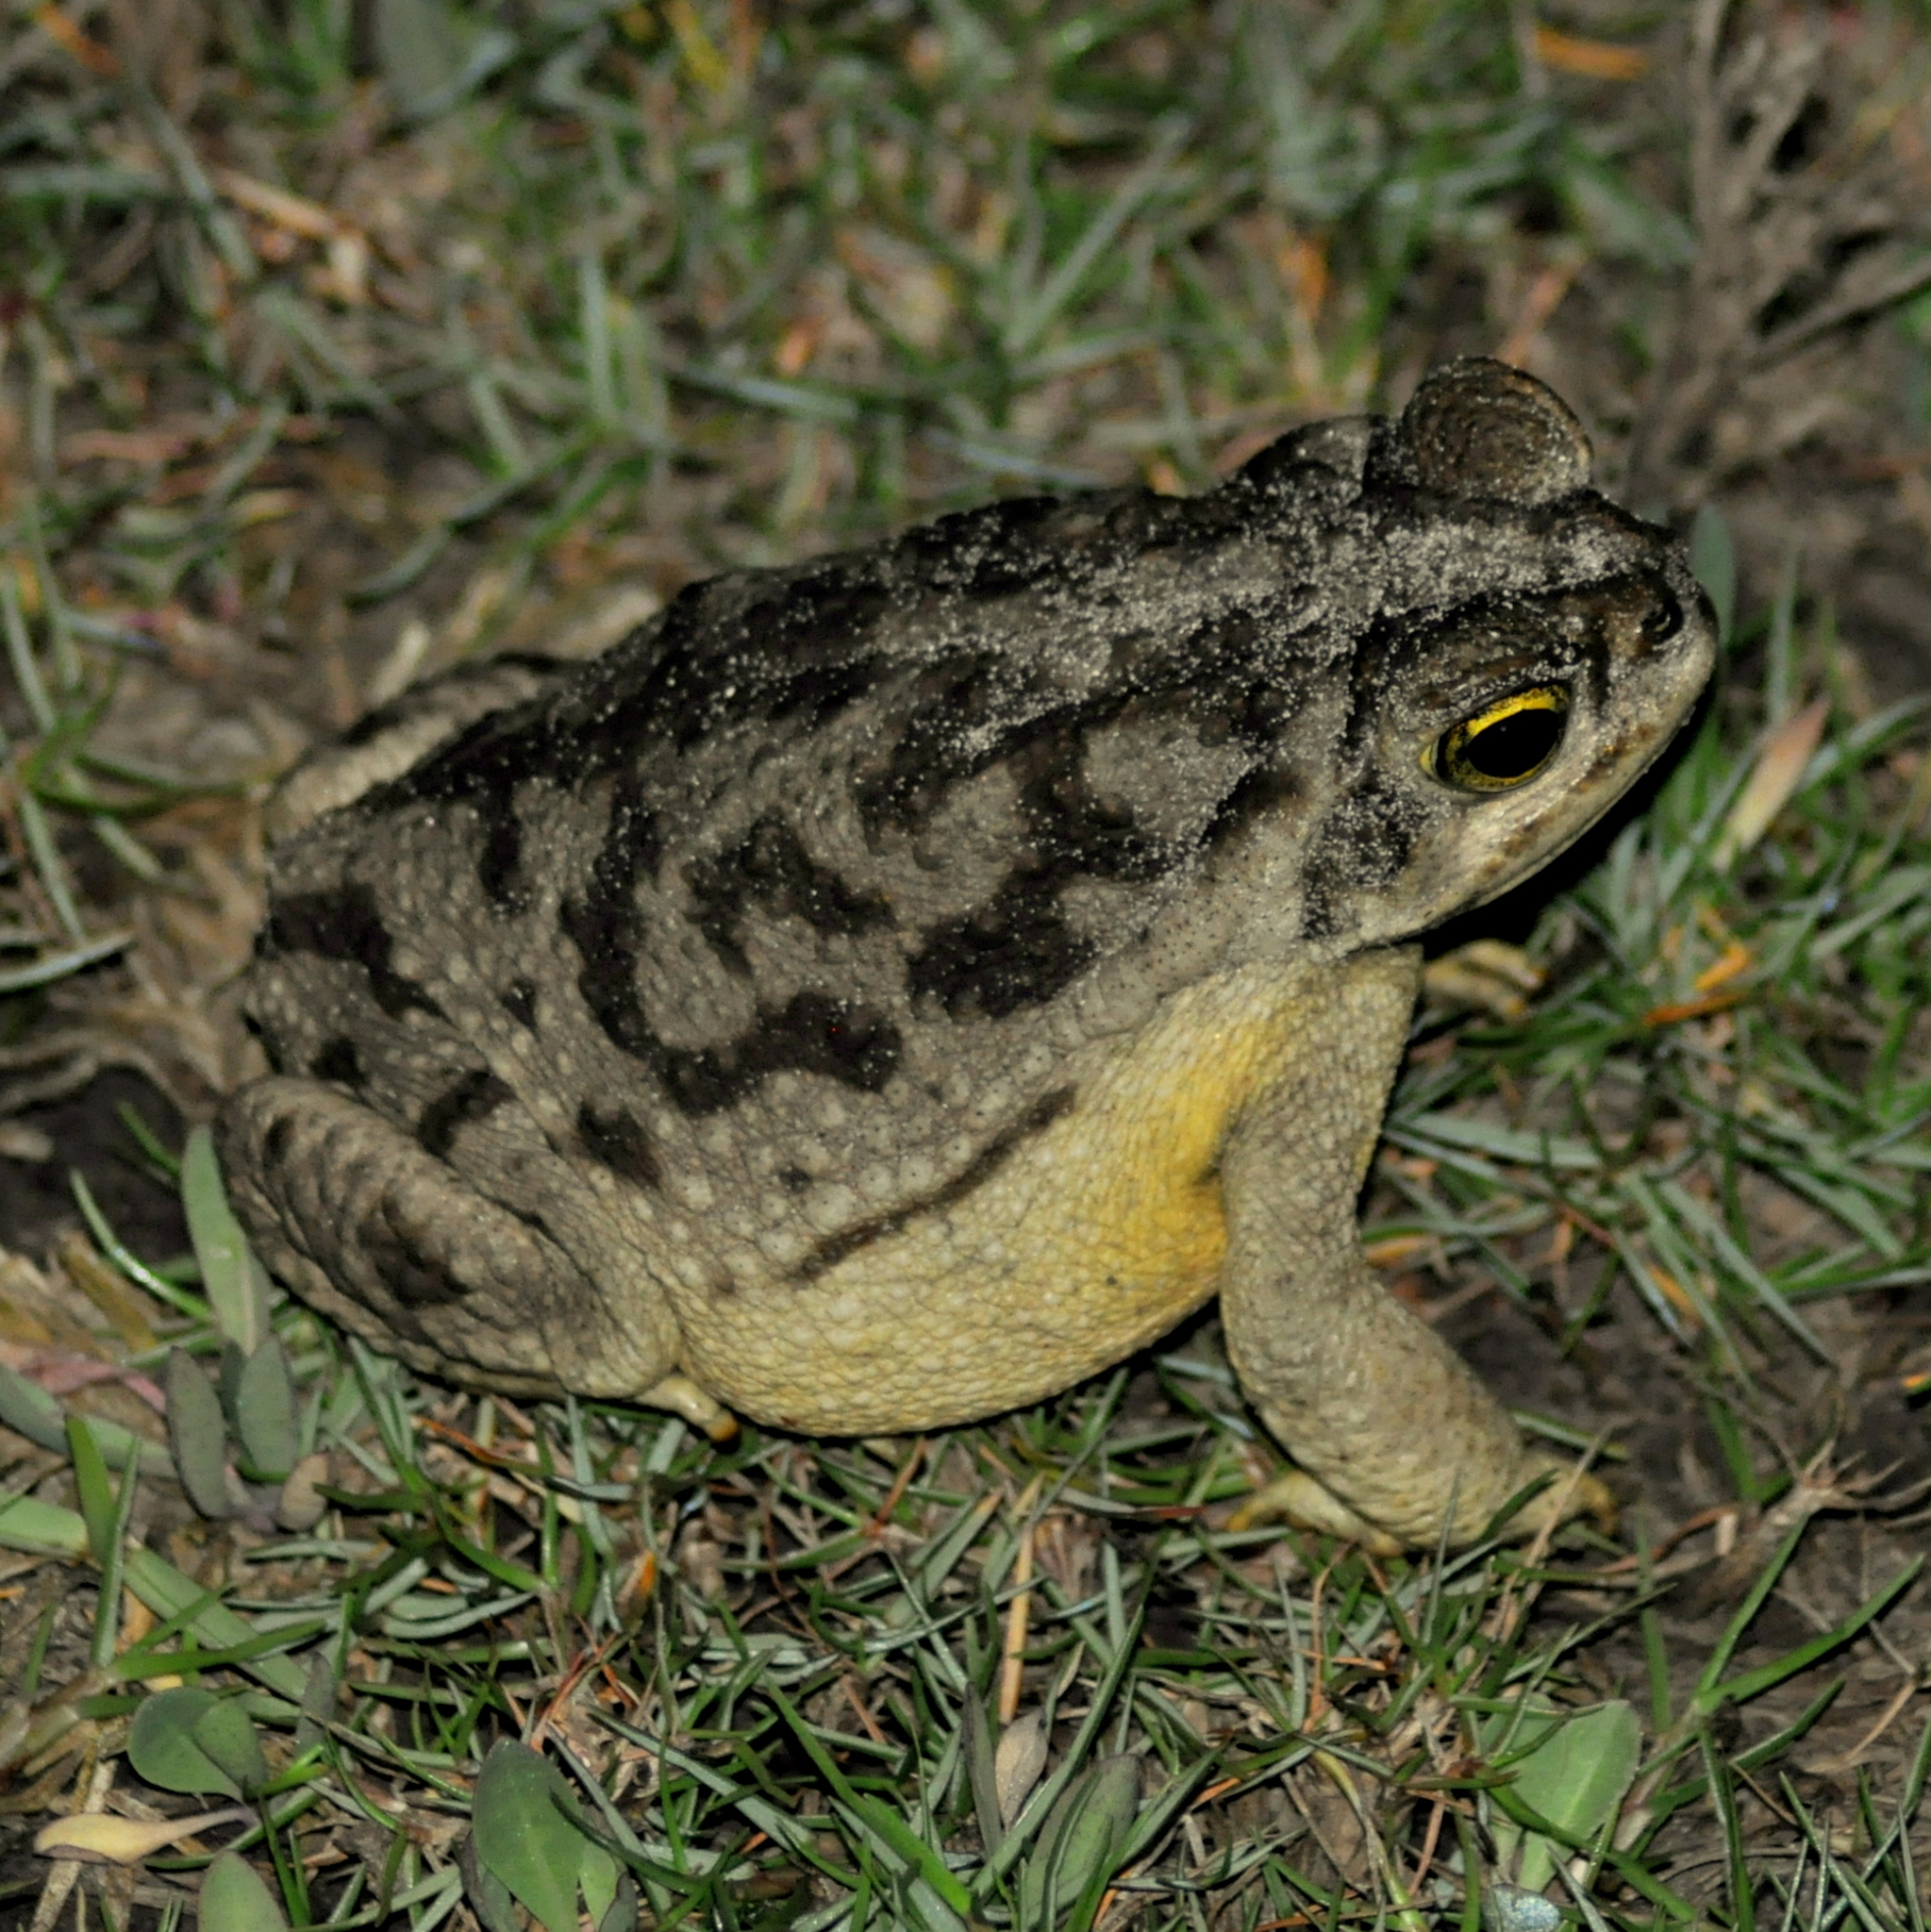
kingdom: Animalia
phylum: Chordata
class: Amphibia
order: Anura
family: Bufonidae
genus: Rhinella
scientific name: Rhinella arenarum
